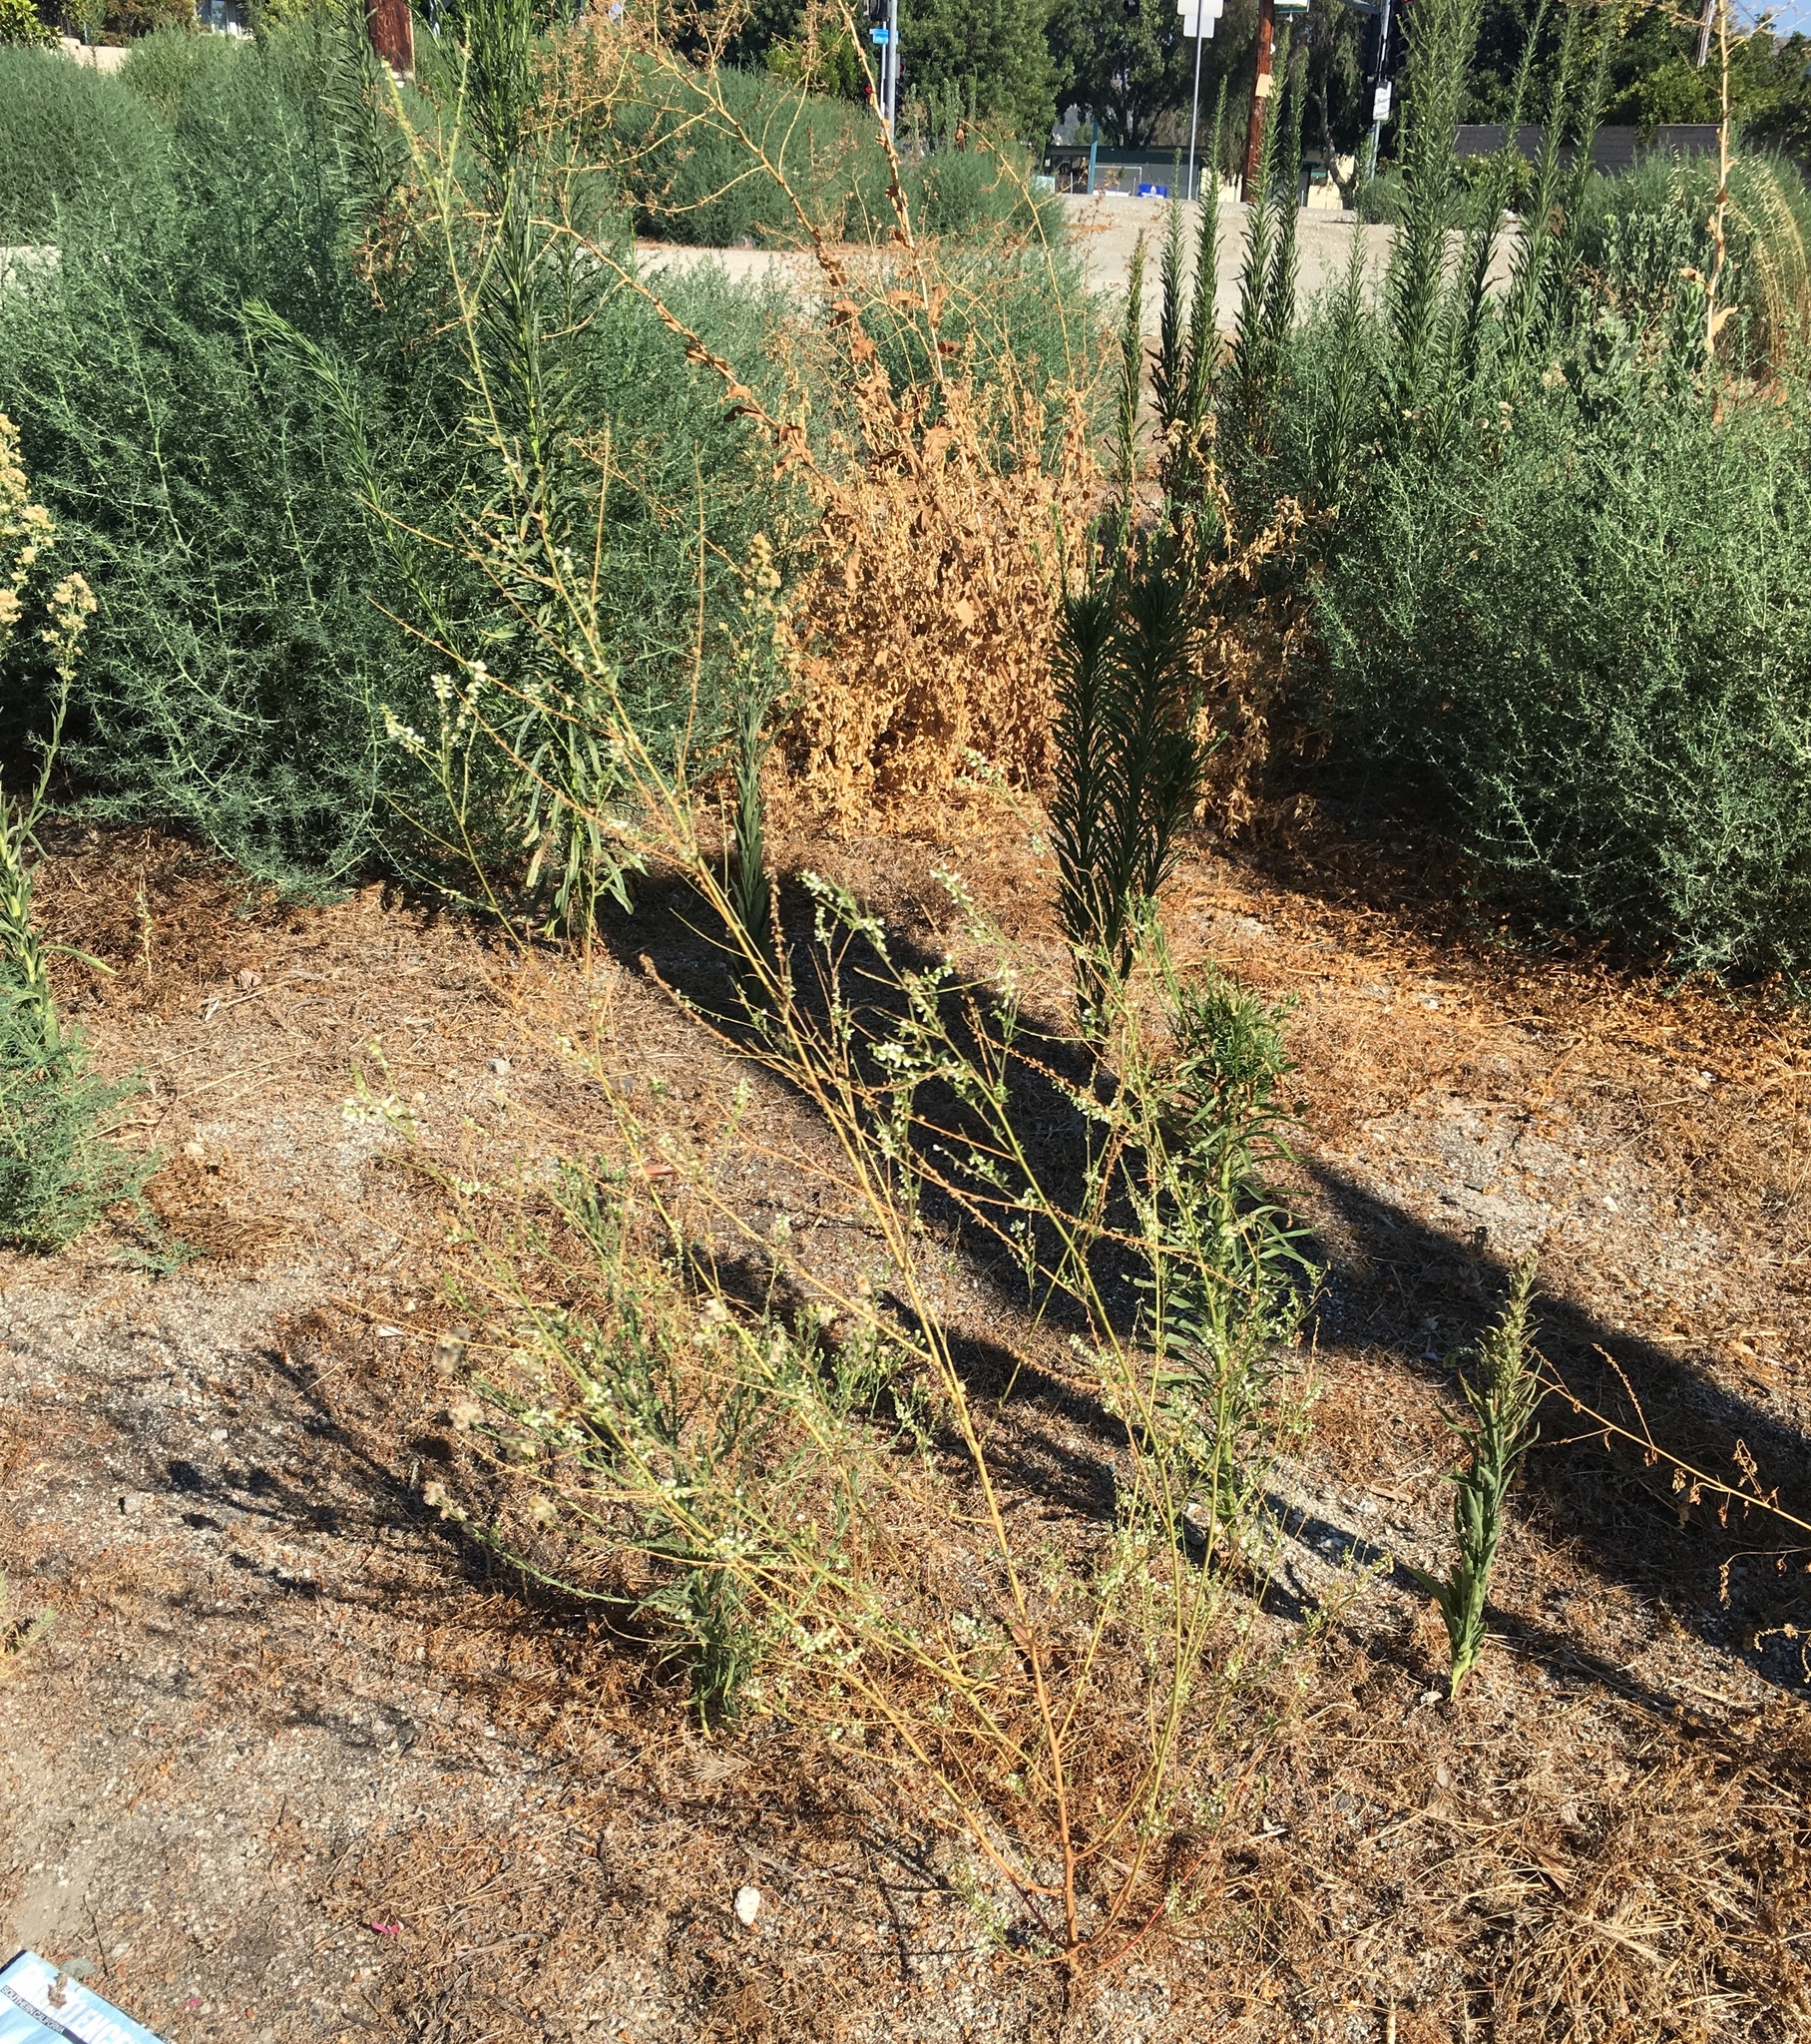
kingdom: Plantae
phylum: Tracheophyta
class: Magnoliopsida
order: Fabales
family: Fabaceae
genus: Melilotus
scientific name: Melilotus albus
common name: White melilot
